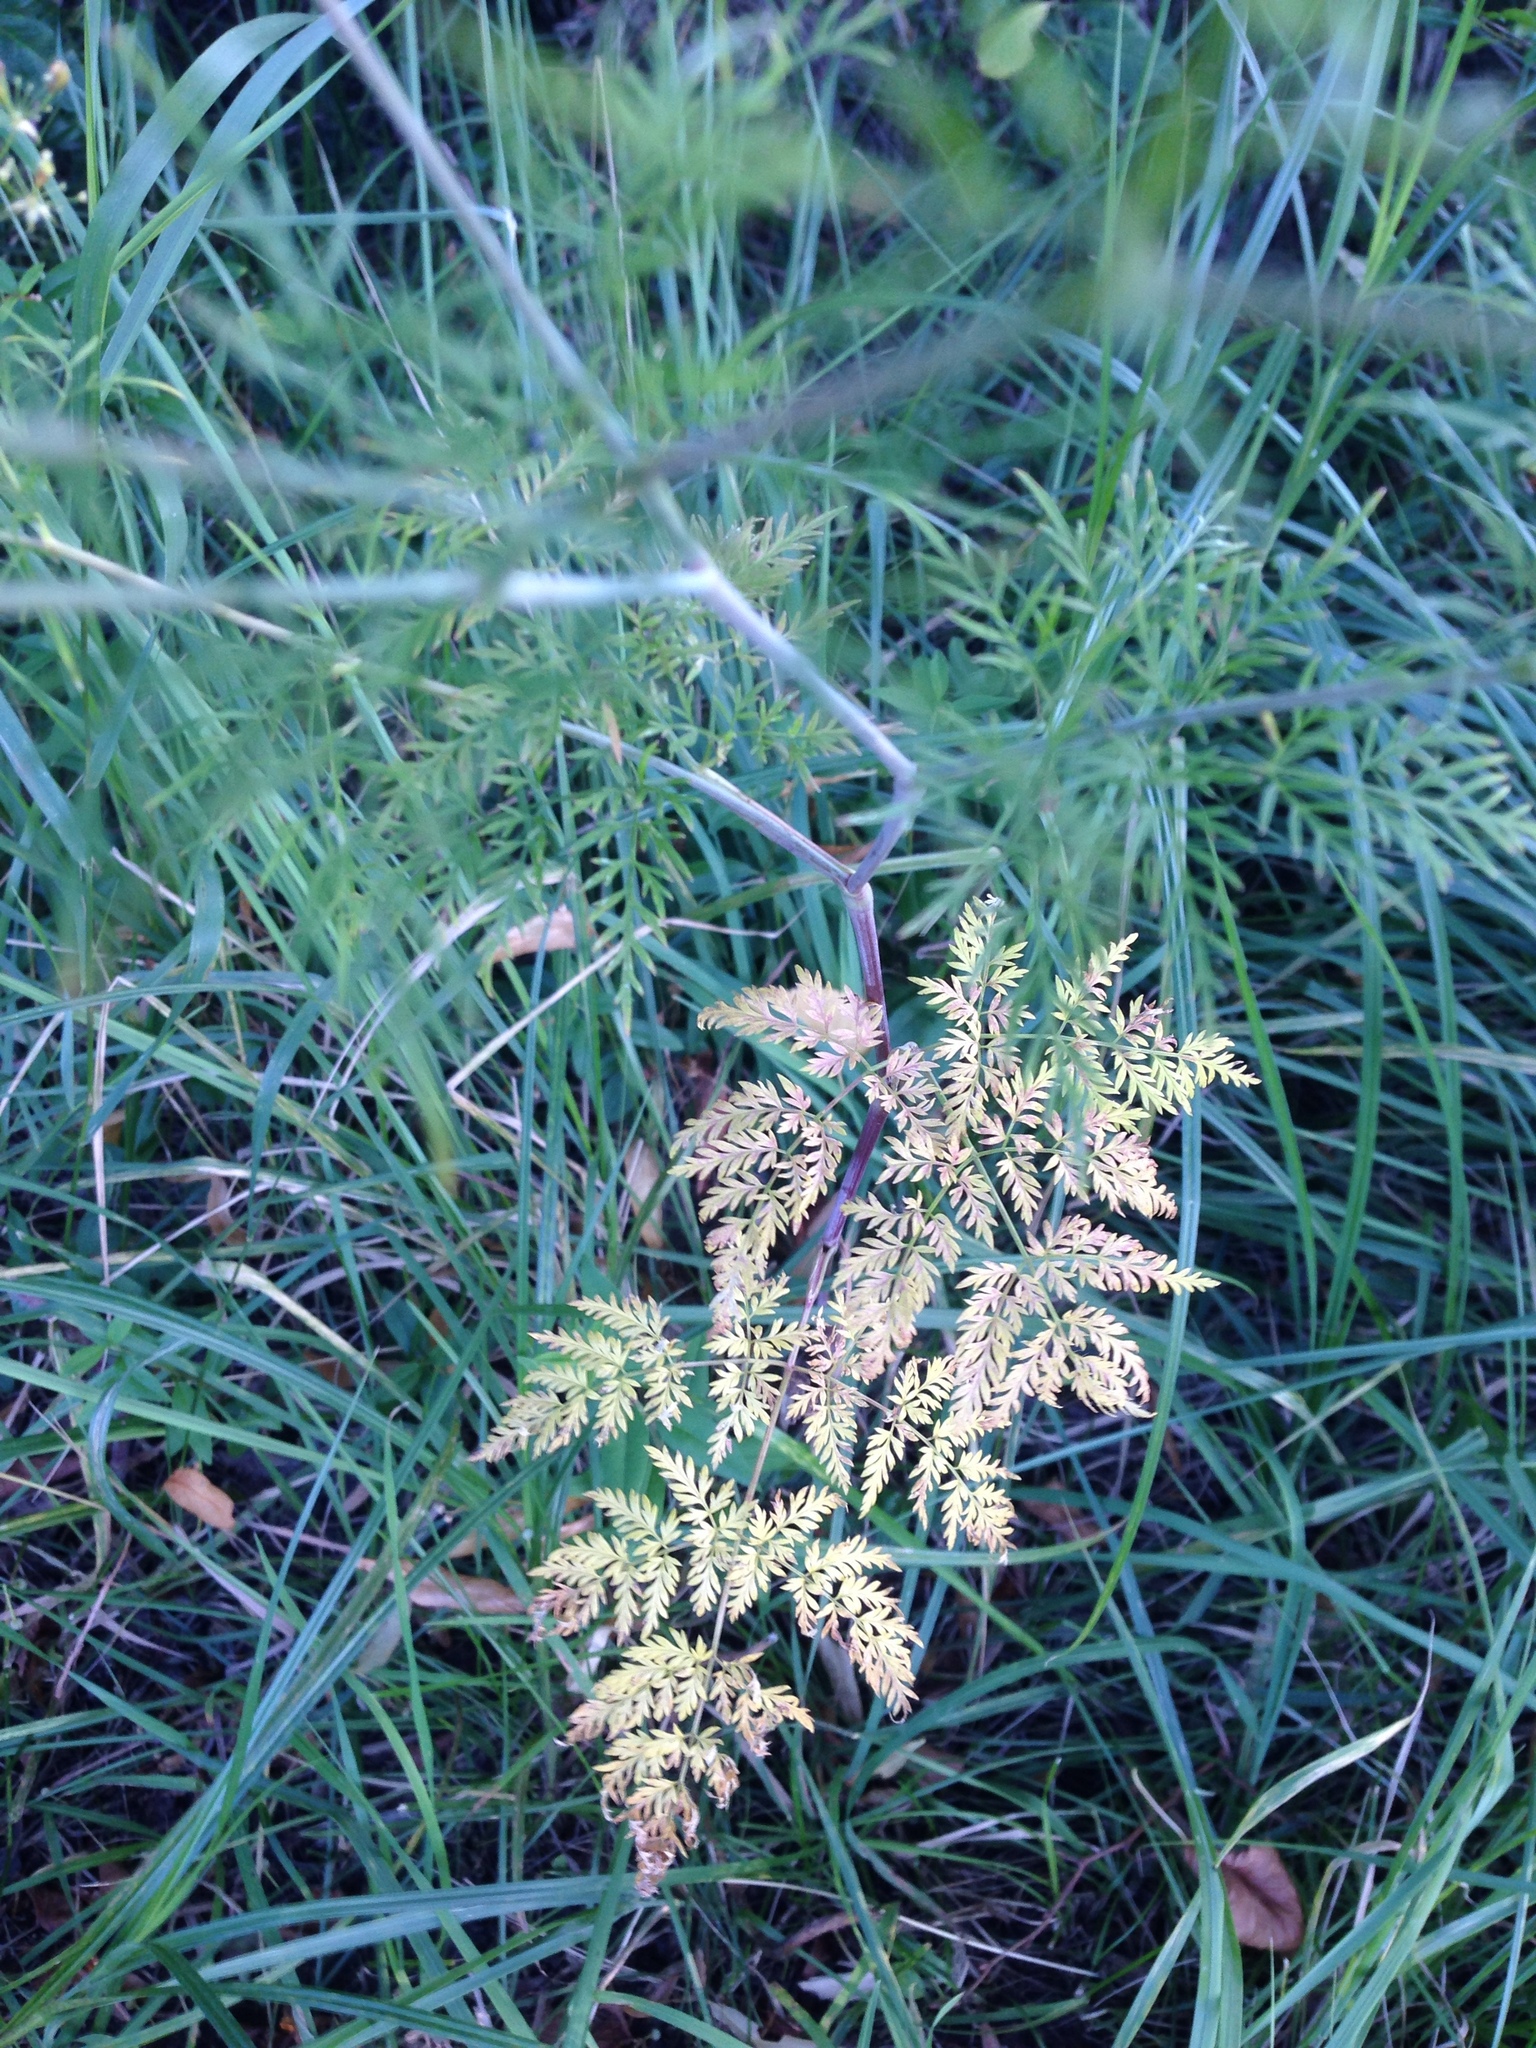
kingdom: Plantae
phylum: Tracheophyta
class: Magnoliopsida
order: Apiales
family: Apiaceae
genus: Chaerophyllum
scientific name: Chaerophyllum bulbosum
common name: Bulbous chervil
